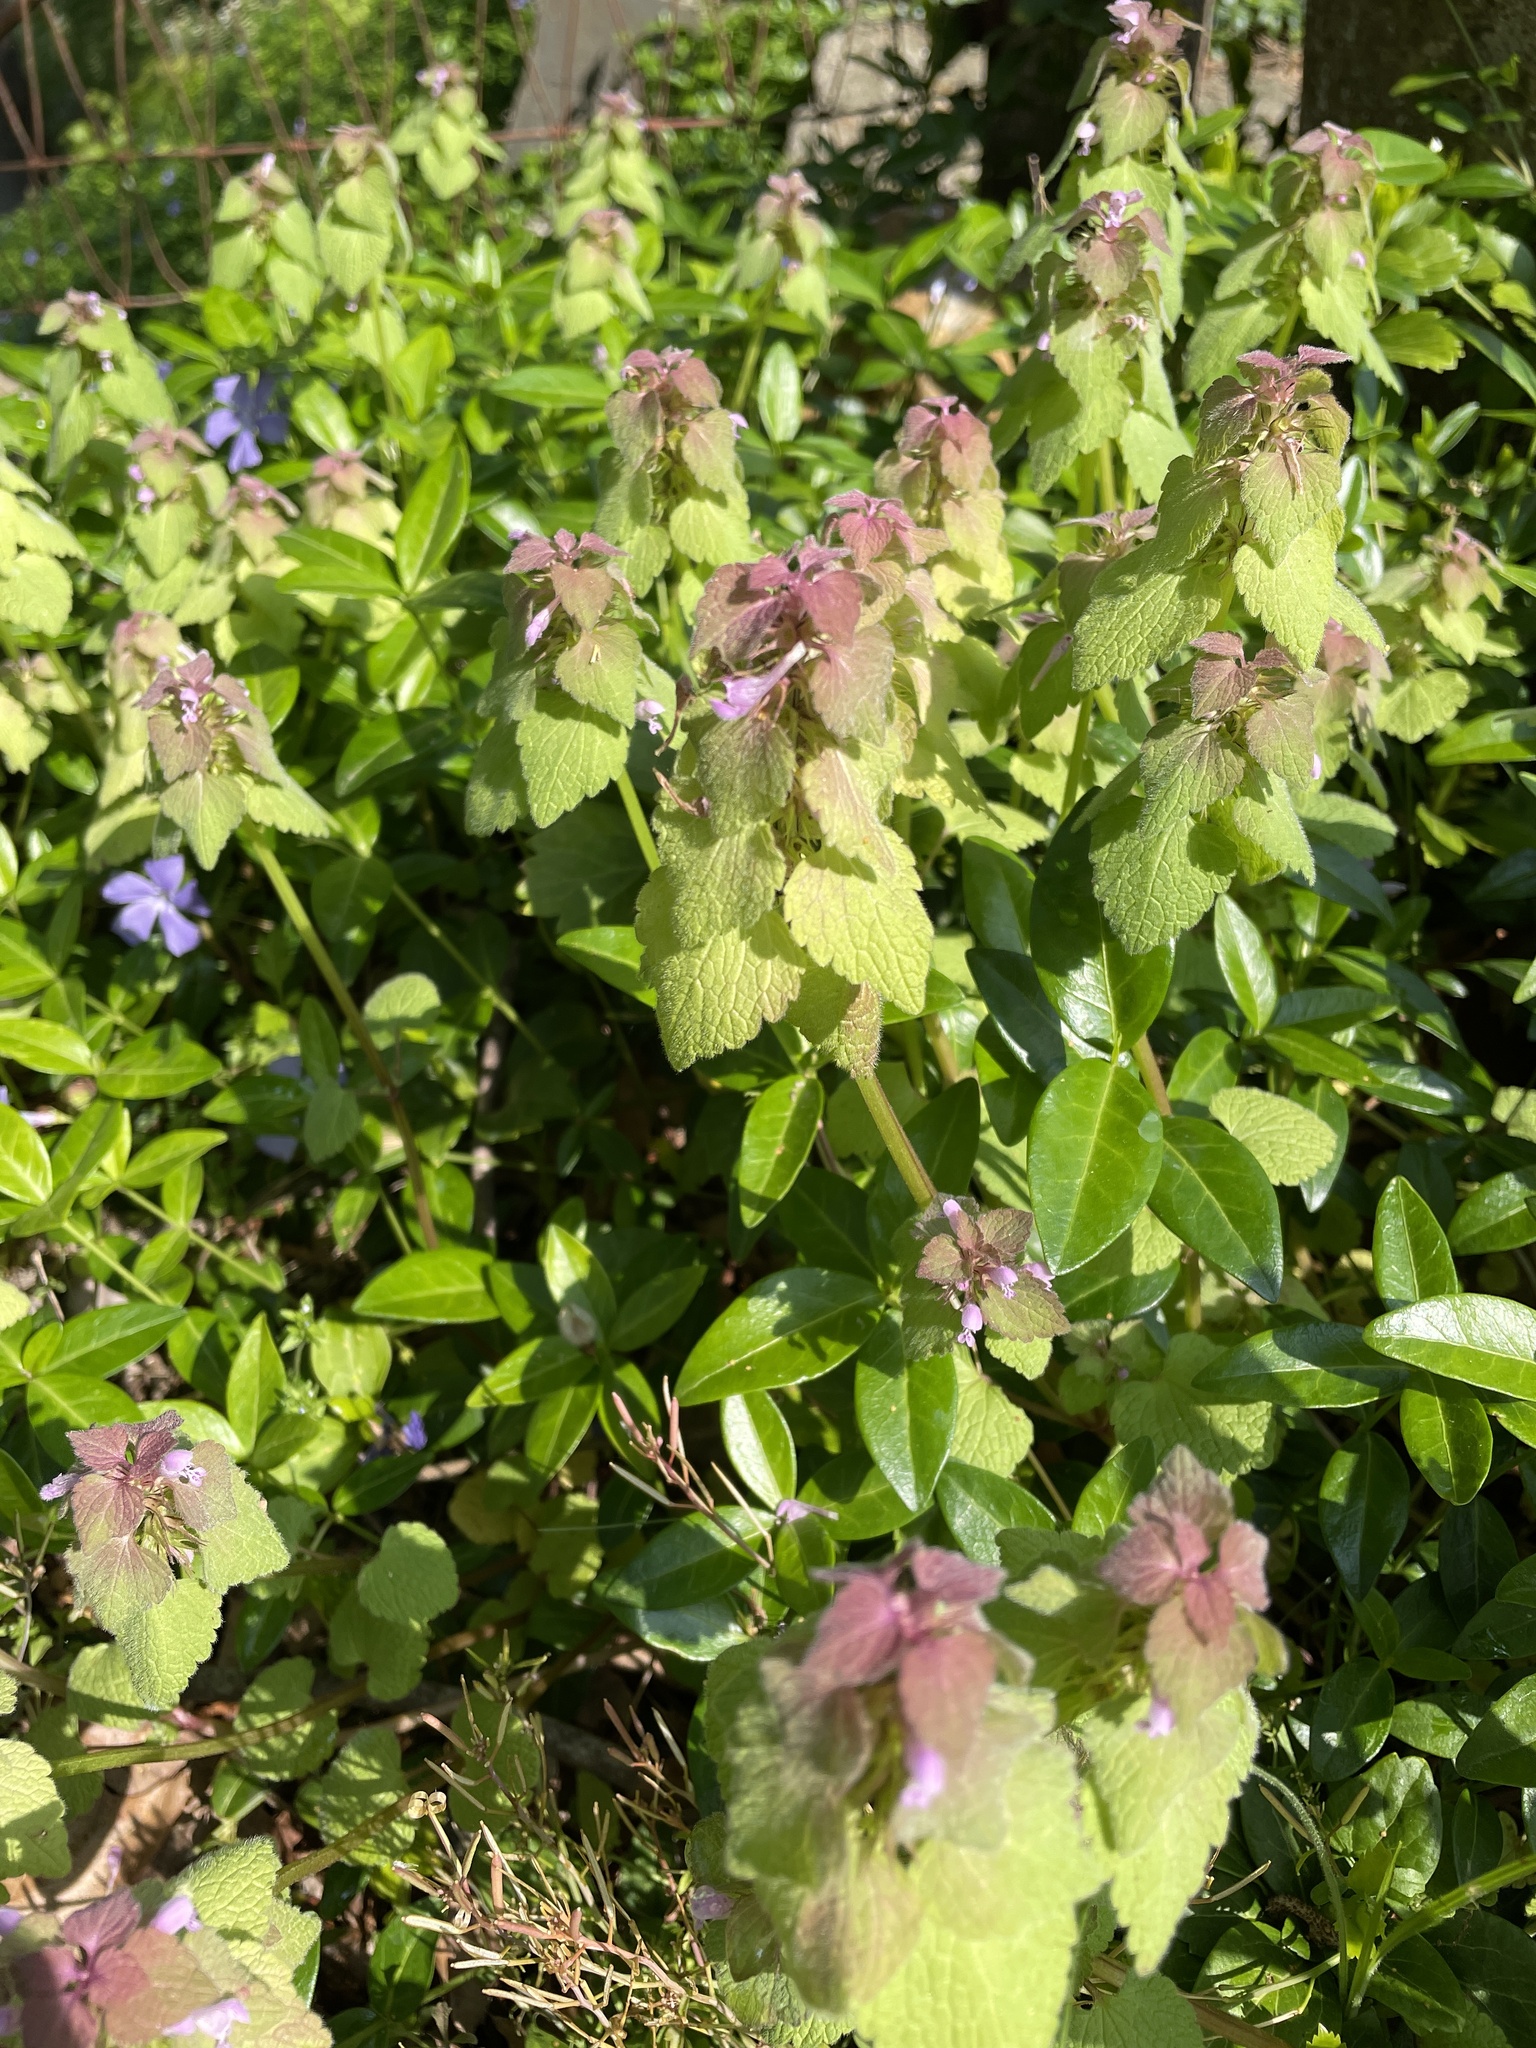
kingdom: Plantae
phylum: Tracheophyta
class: Magnoliopsida
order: Lamiales
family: Lamiaceae
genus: Lamium
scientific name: Lamium purpureum
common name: Red dead-nettle
